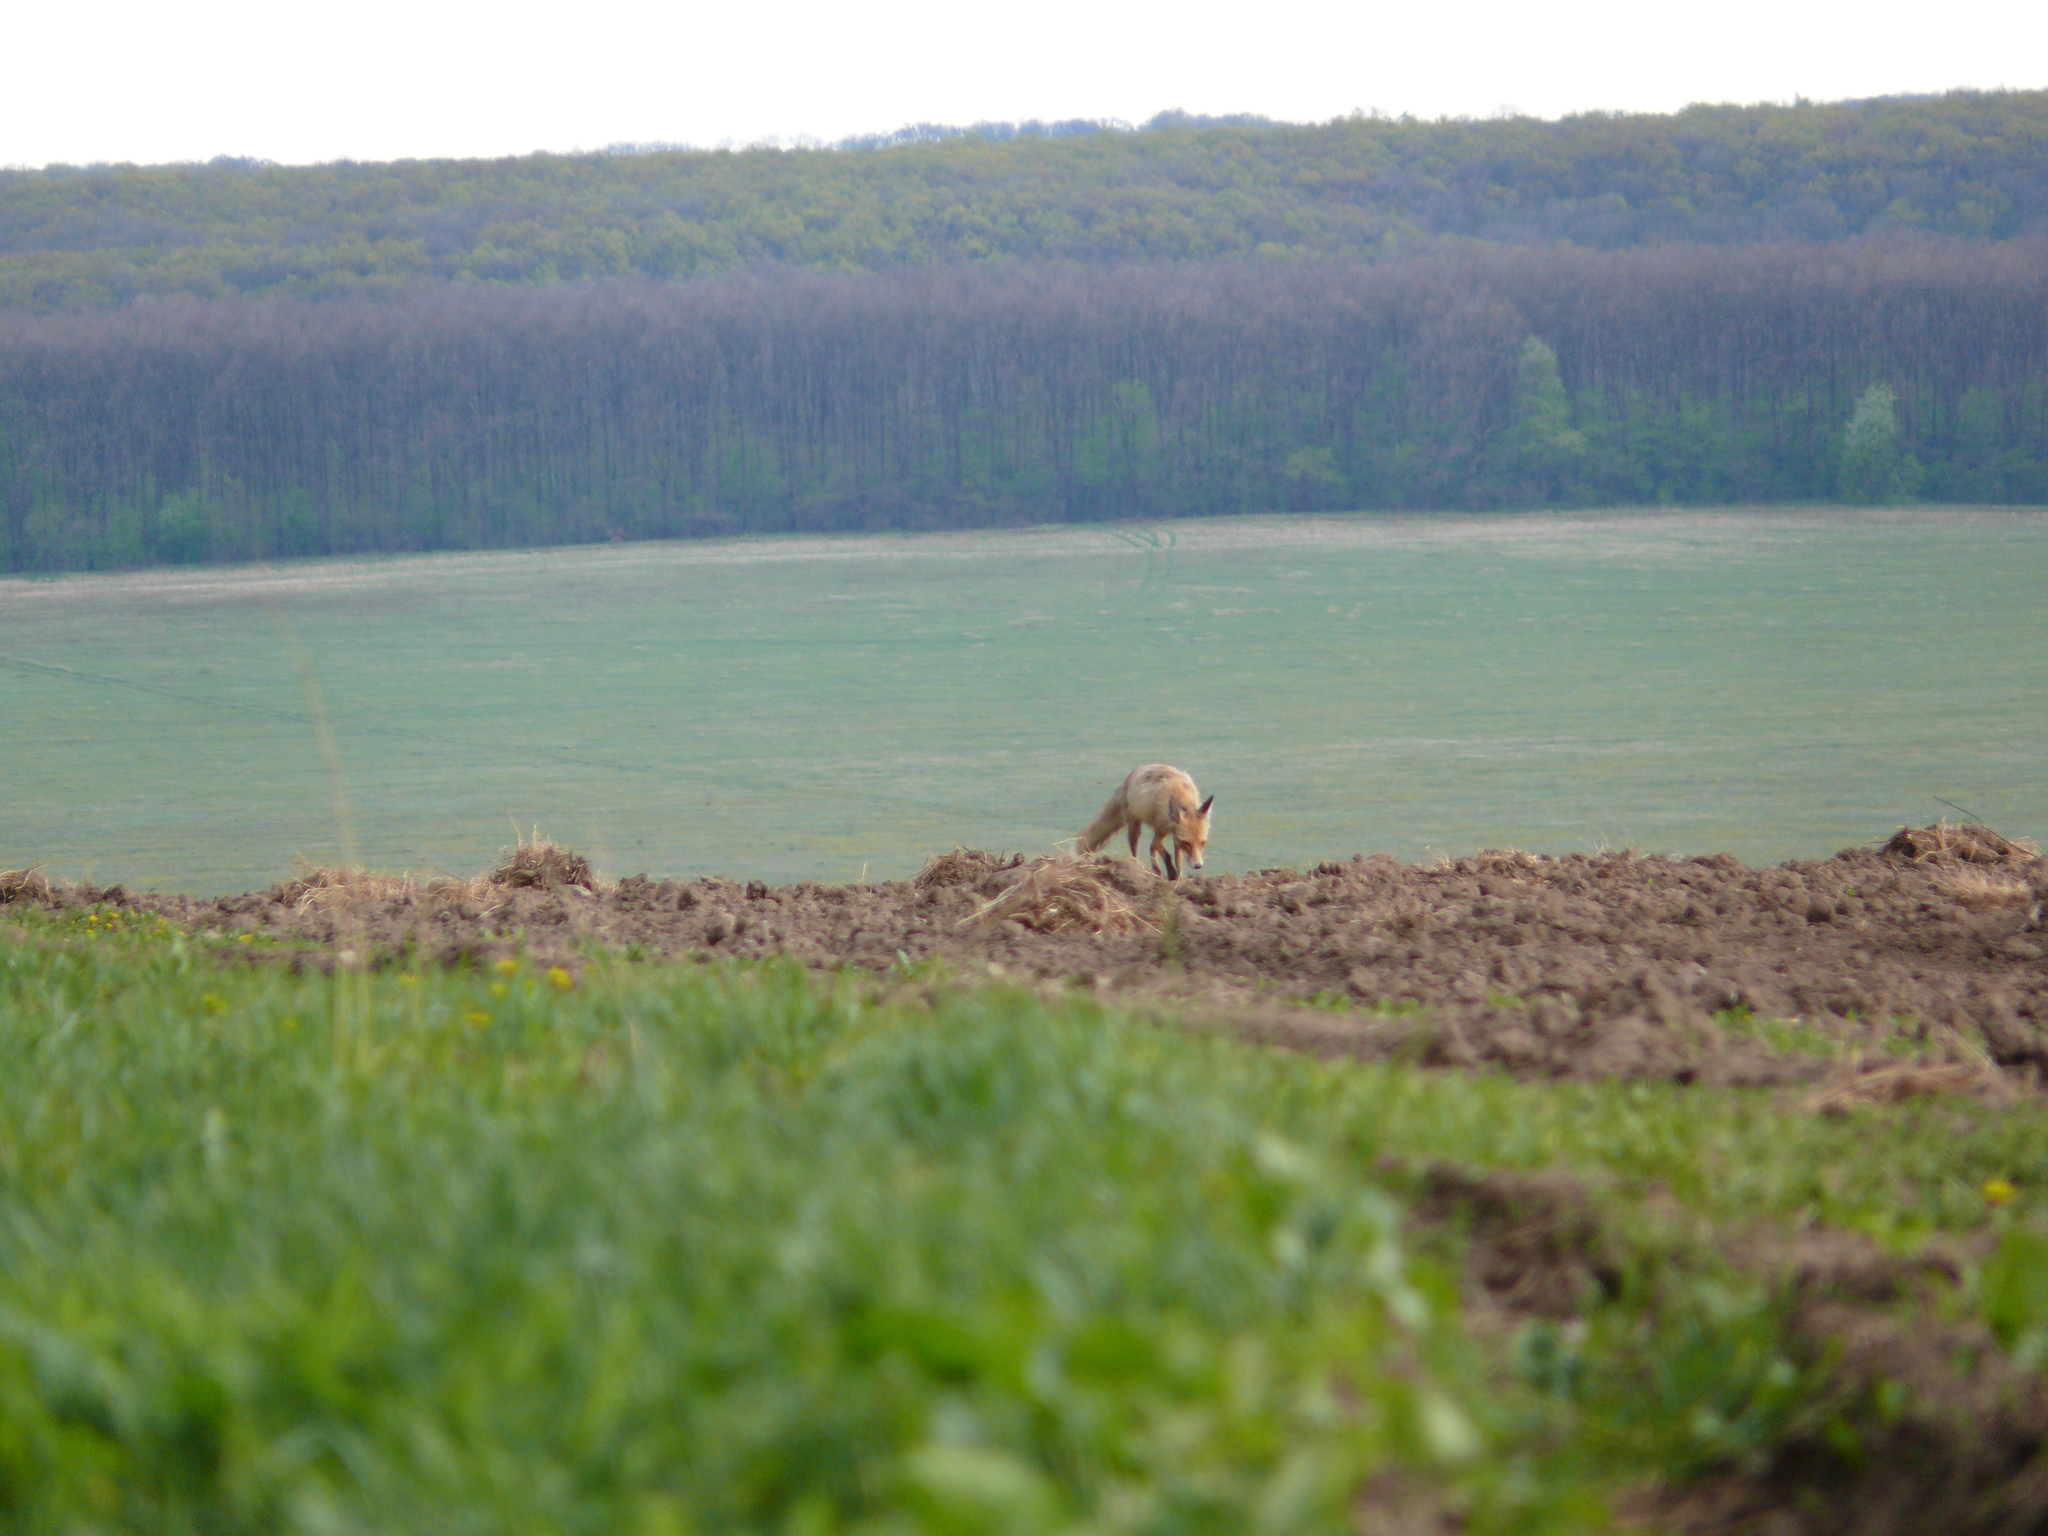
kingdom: Animalia
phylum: Chordata
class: Mammalia
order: Carnivora
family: Canidae
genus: Vulpes
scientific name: Vulpes vulpes
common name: Red fox
